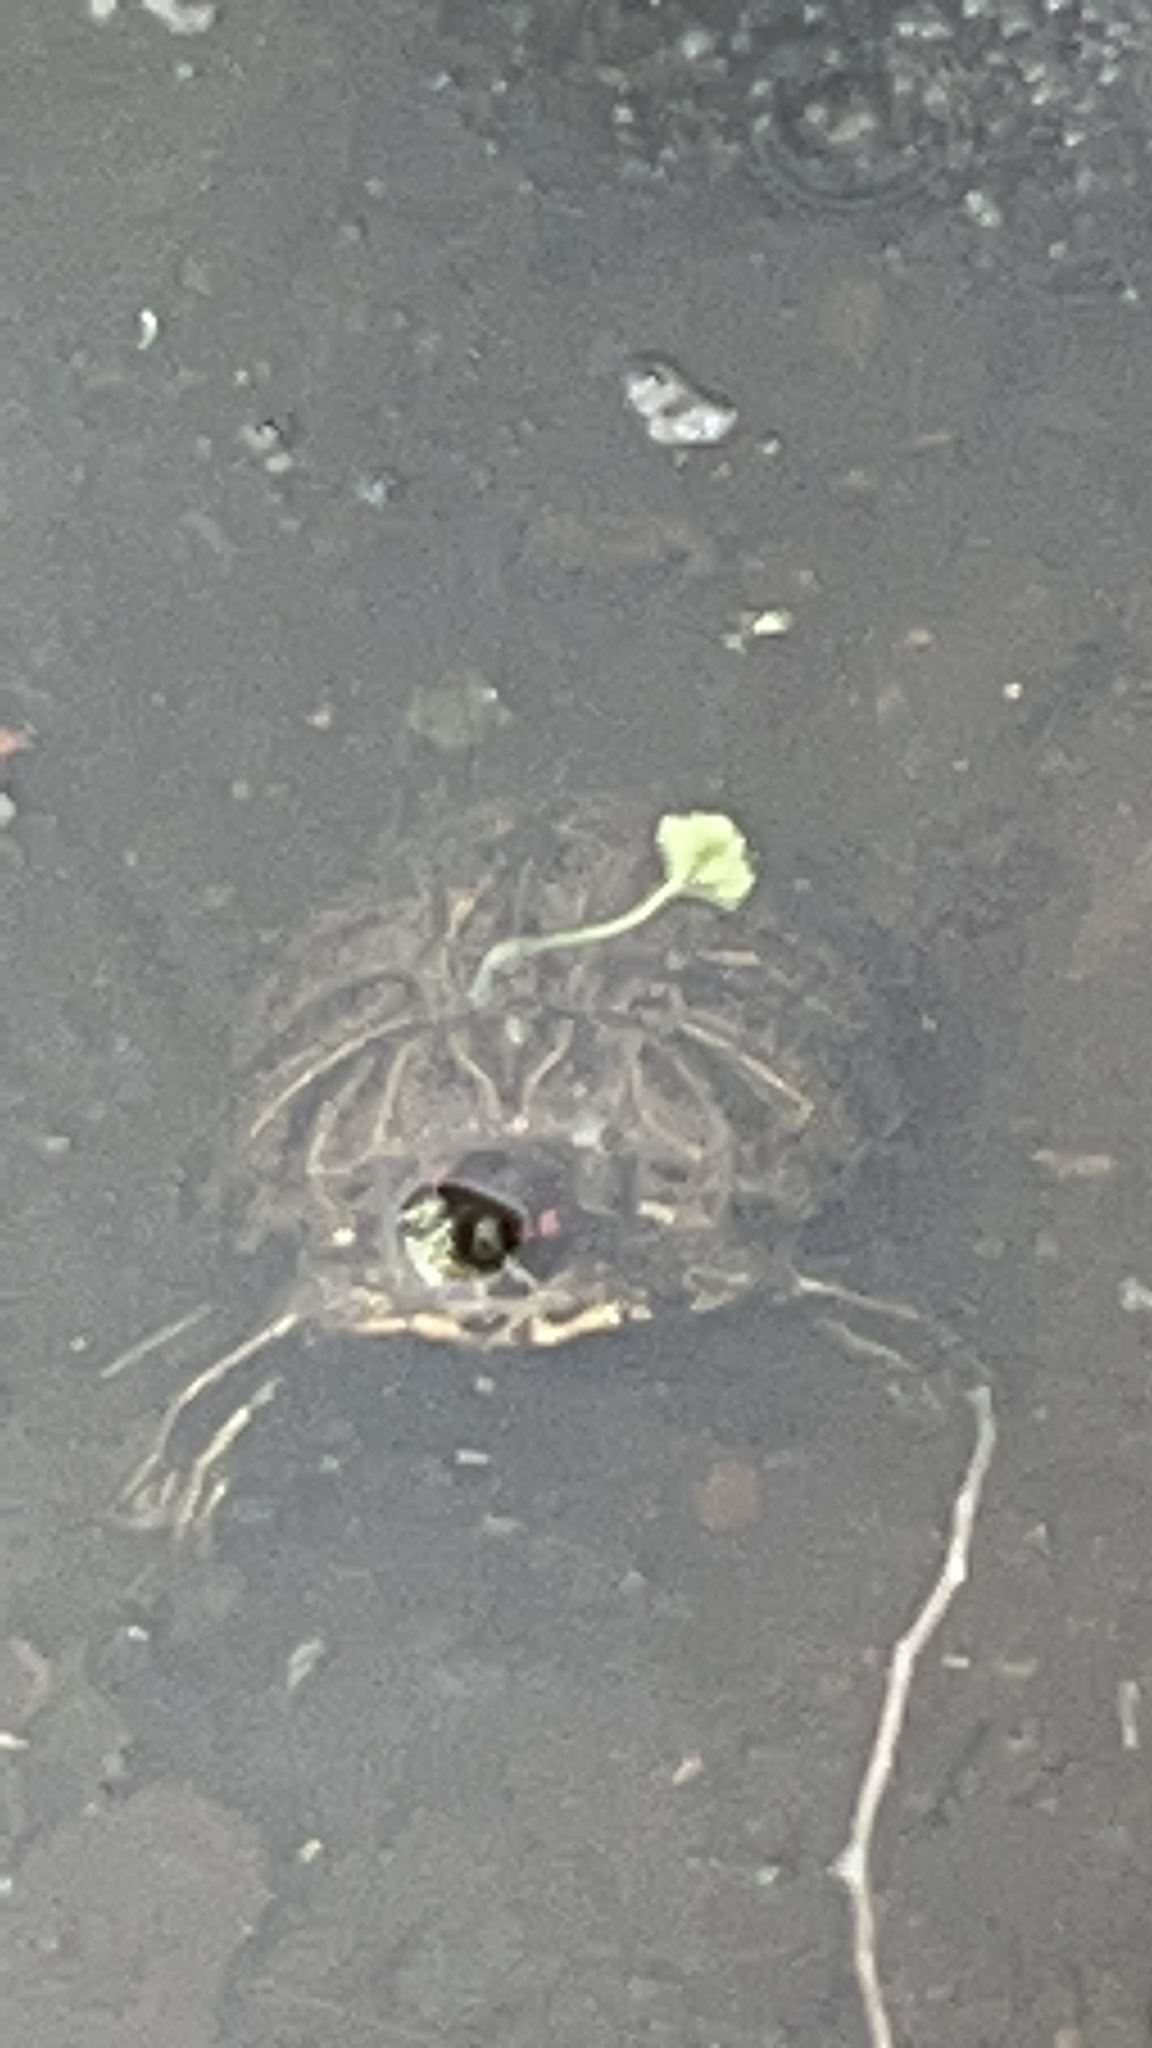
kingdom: Animalia
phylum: Chordata
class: Testudines
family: Emydidae
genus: Trachemys
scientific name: Trachemys scripta
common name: Slider
